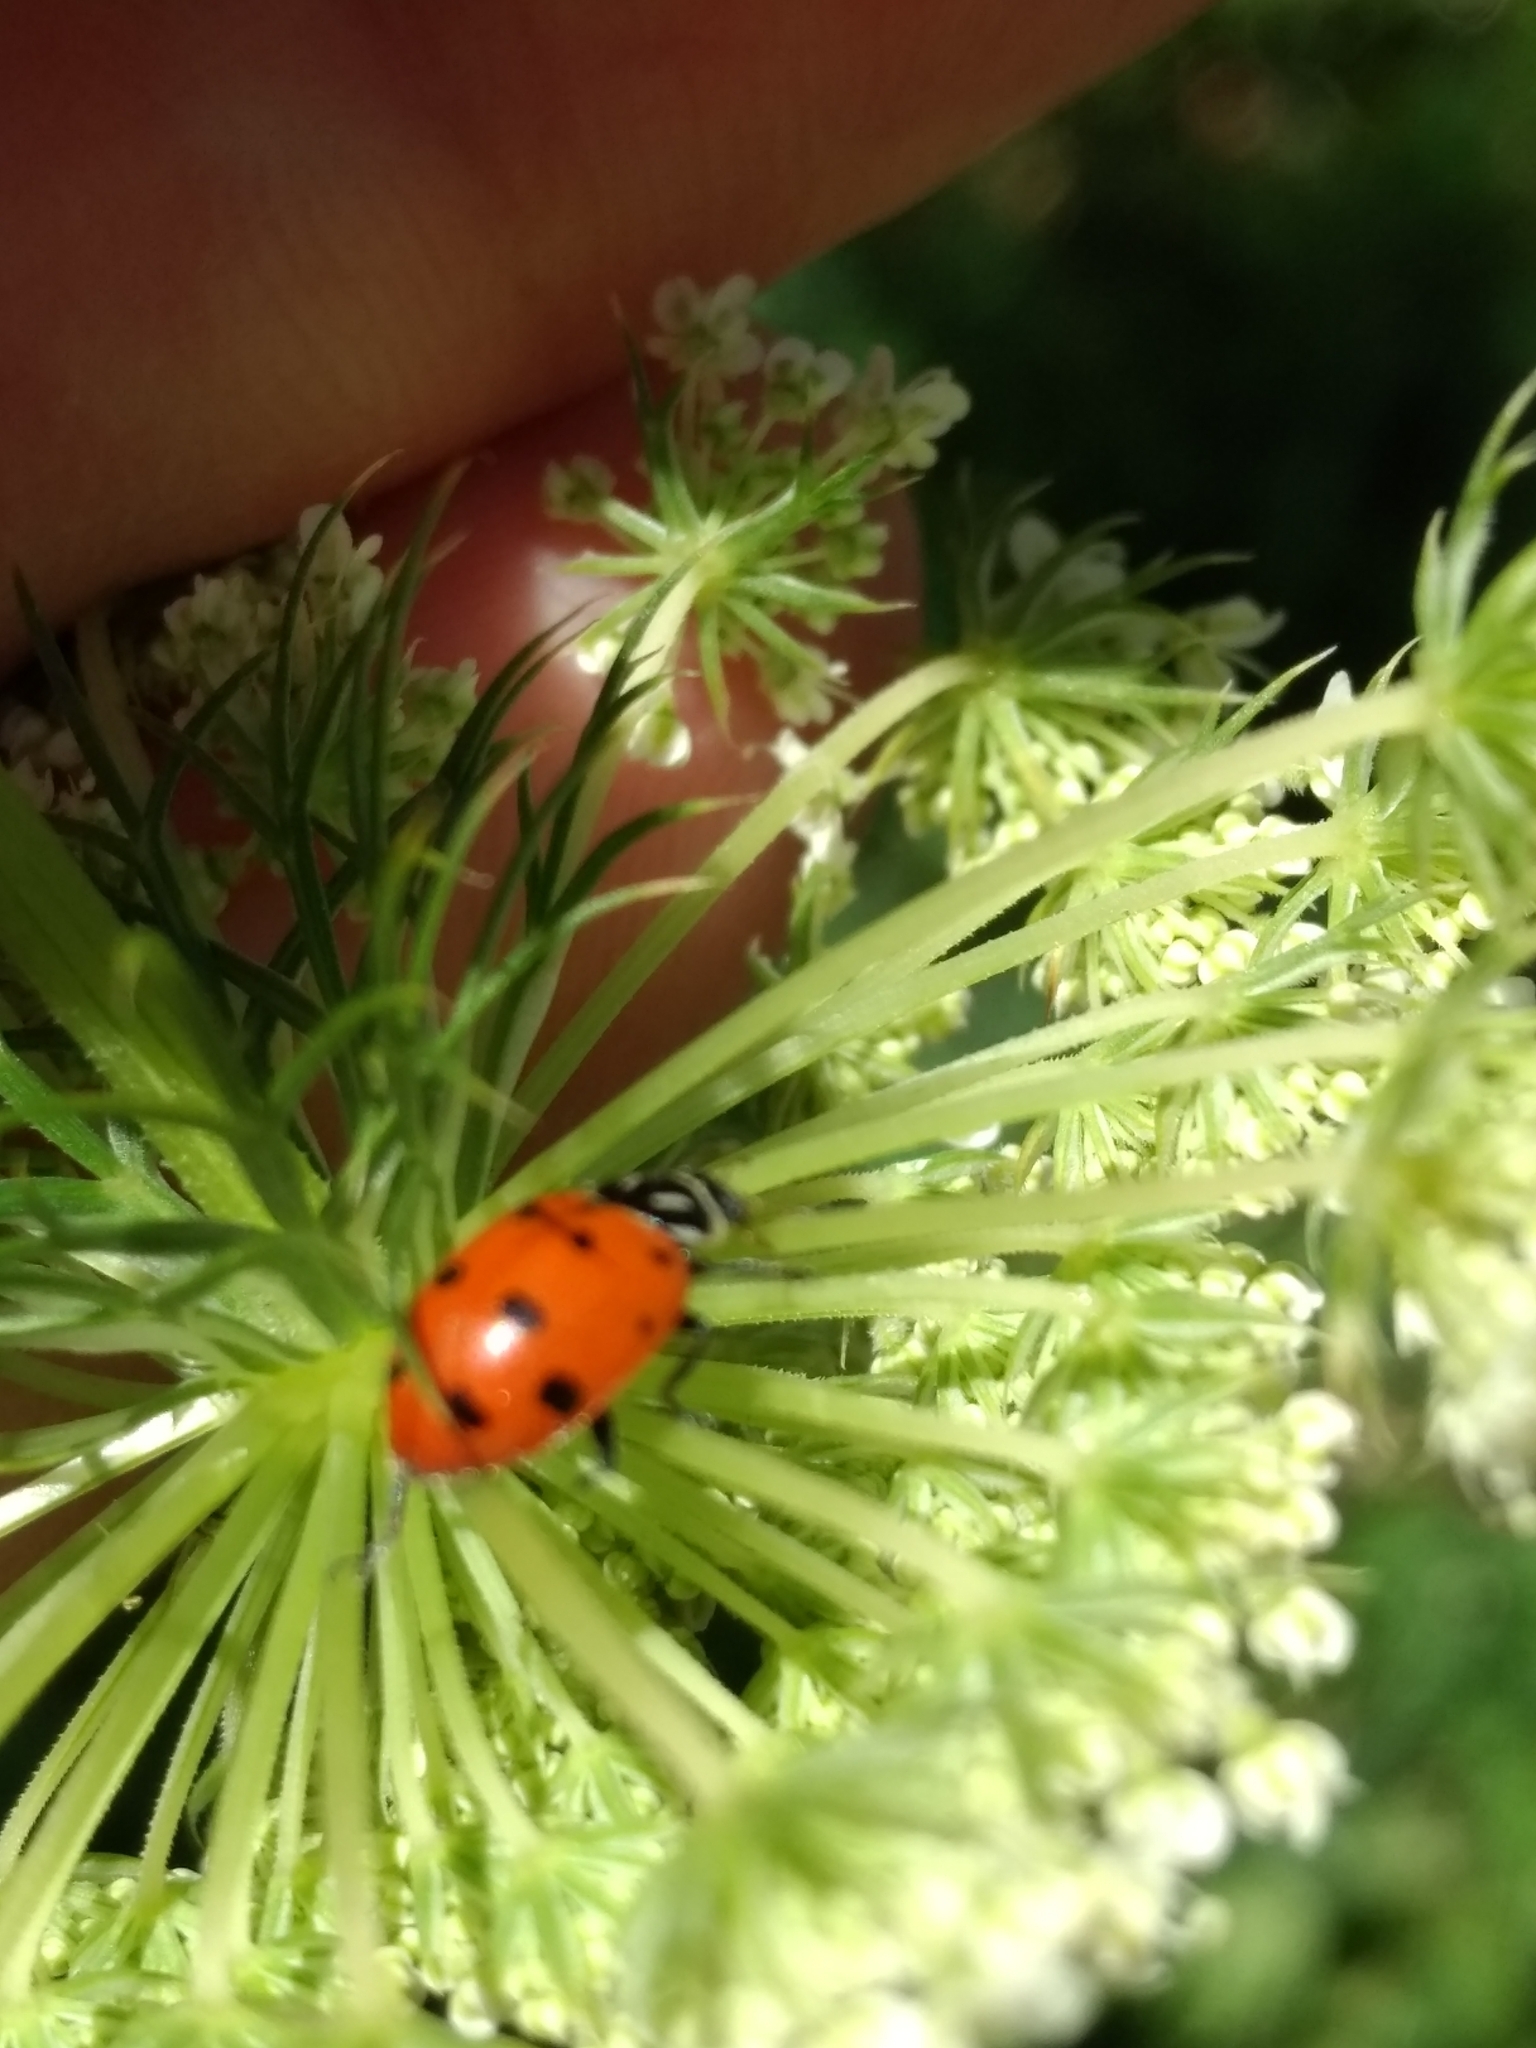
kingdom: Animalia
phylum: Arthropoda
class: Insecta
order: Coleoptera
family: Coccinellidae
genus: Hippodamia
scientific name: Hippodamia convergens
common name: Convergent lady beetle
